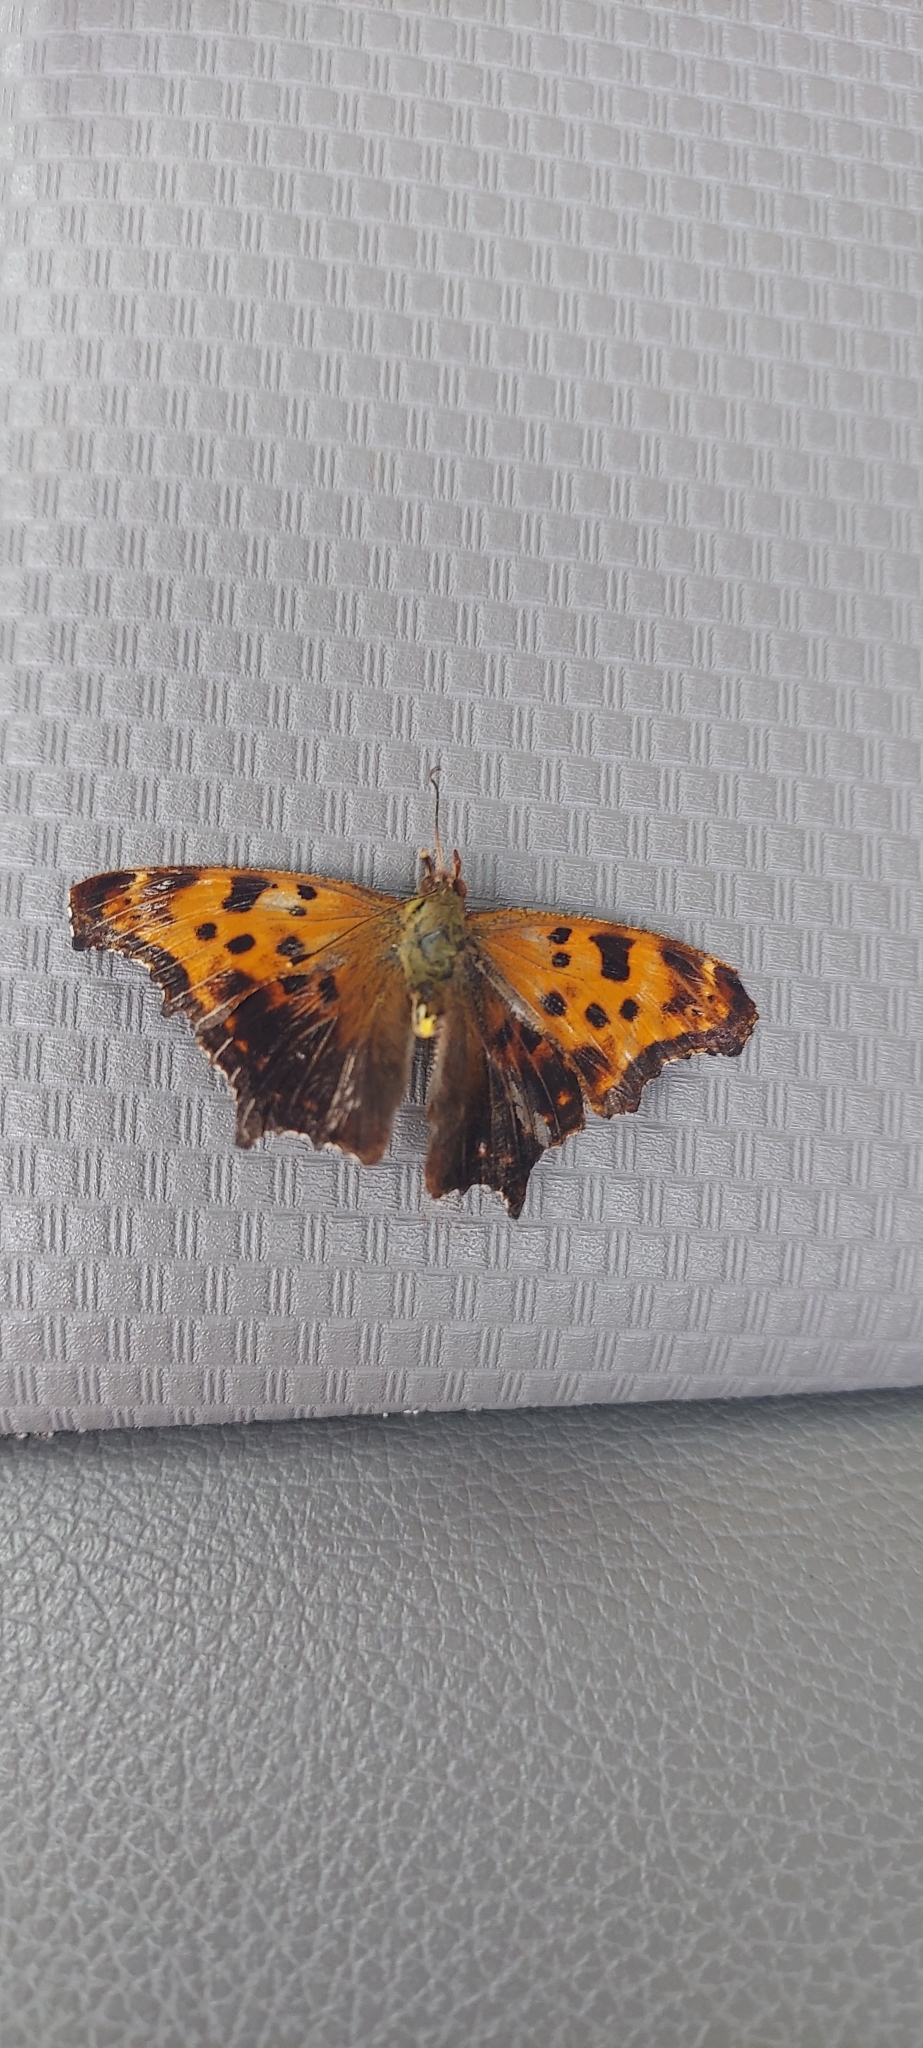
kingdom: Animalia
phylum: Arthropoda
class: Insecta
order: Lepidoptera
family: Nymphalidae
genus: Polygonia
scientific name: Polygonia comma
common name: Eastern comma
